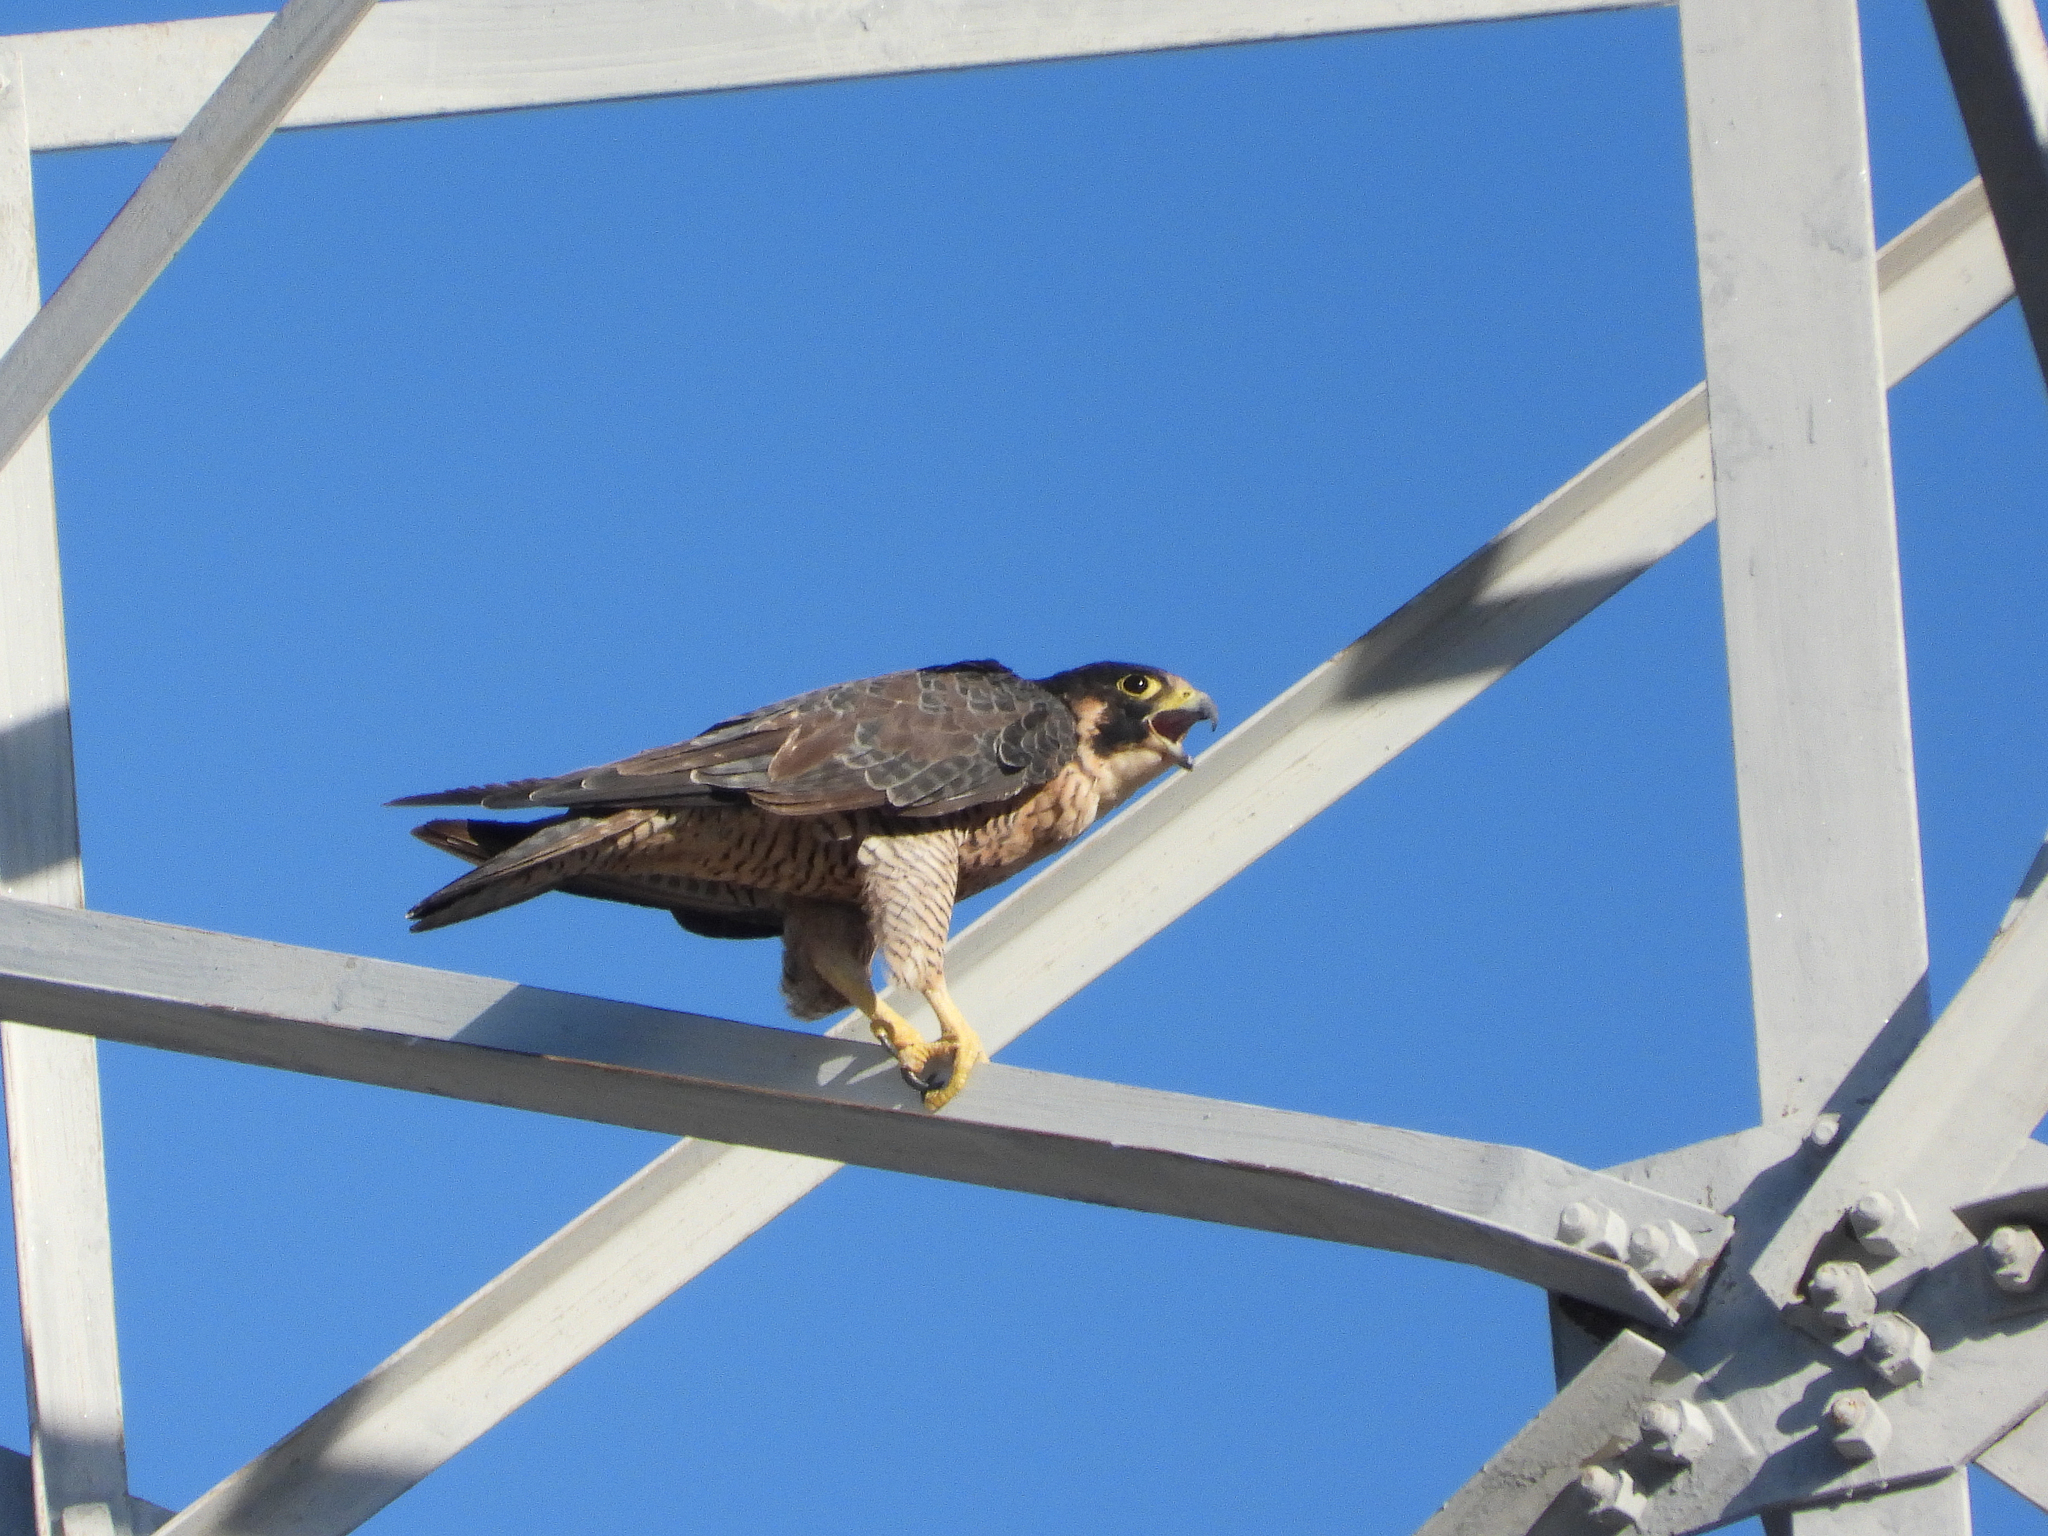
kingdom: Animalia
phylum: Chordata
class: Aves
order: Falconiformes
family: Falconidae
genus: Falco
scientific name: Falco peregrinus
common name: Peregrine falcon
